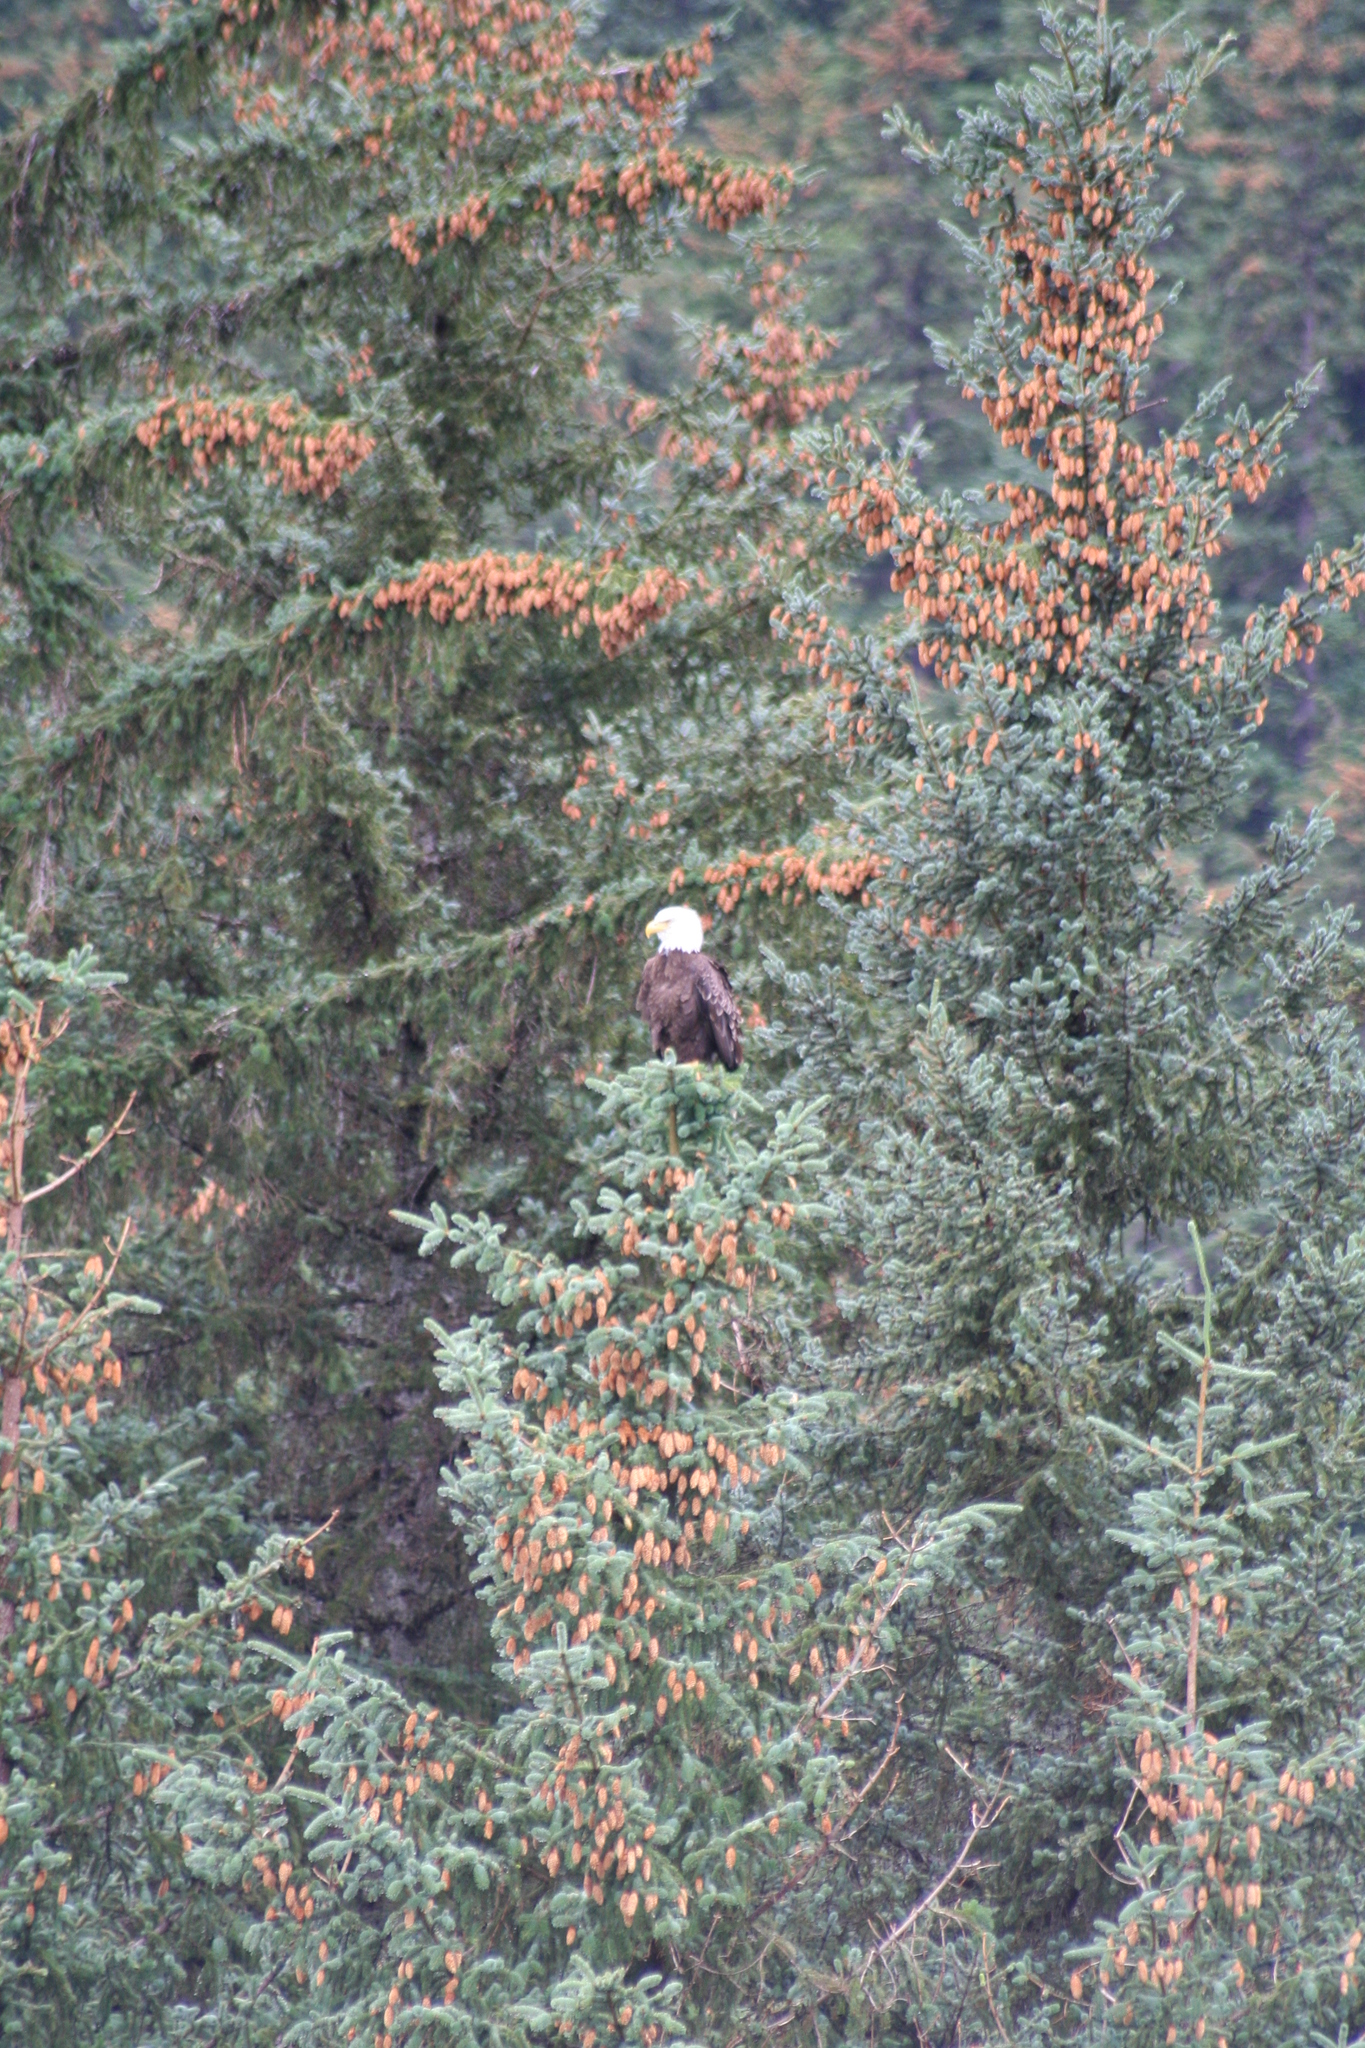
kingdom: Animalia
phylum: Chordata
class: Aves
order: Accipitriformes
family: Accipitridae
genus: Haliaeetus
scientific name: Haliaeetus leucocephalus
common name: Bald eagle
